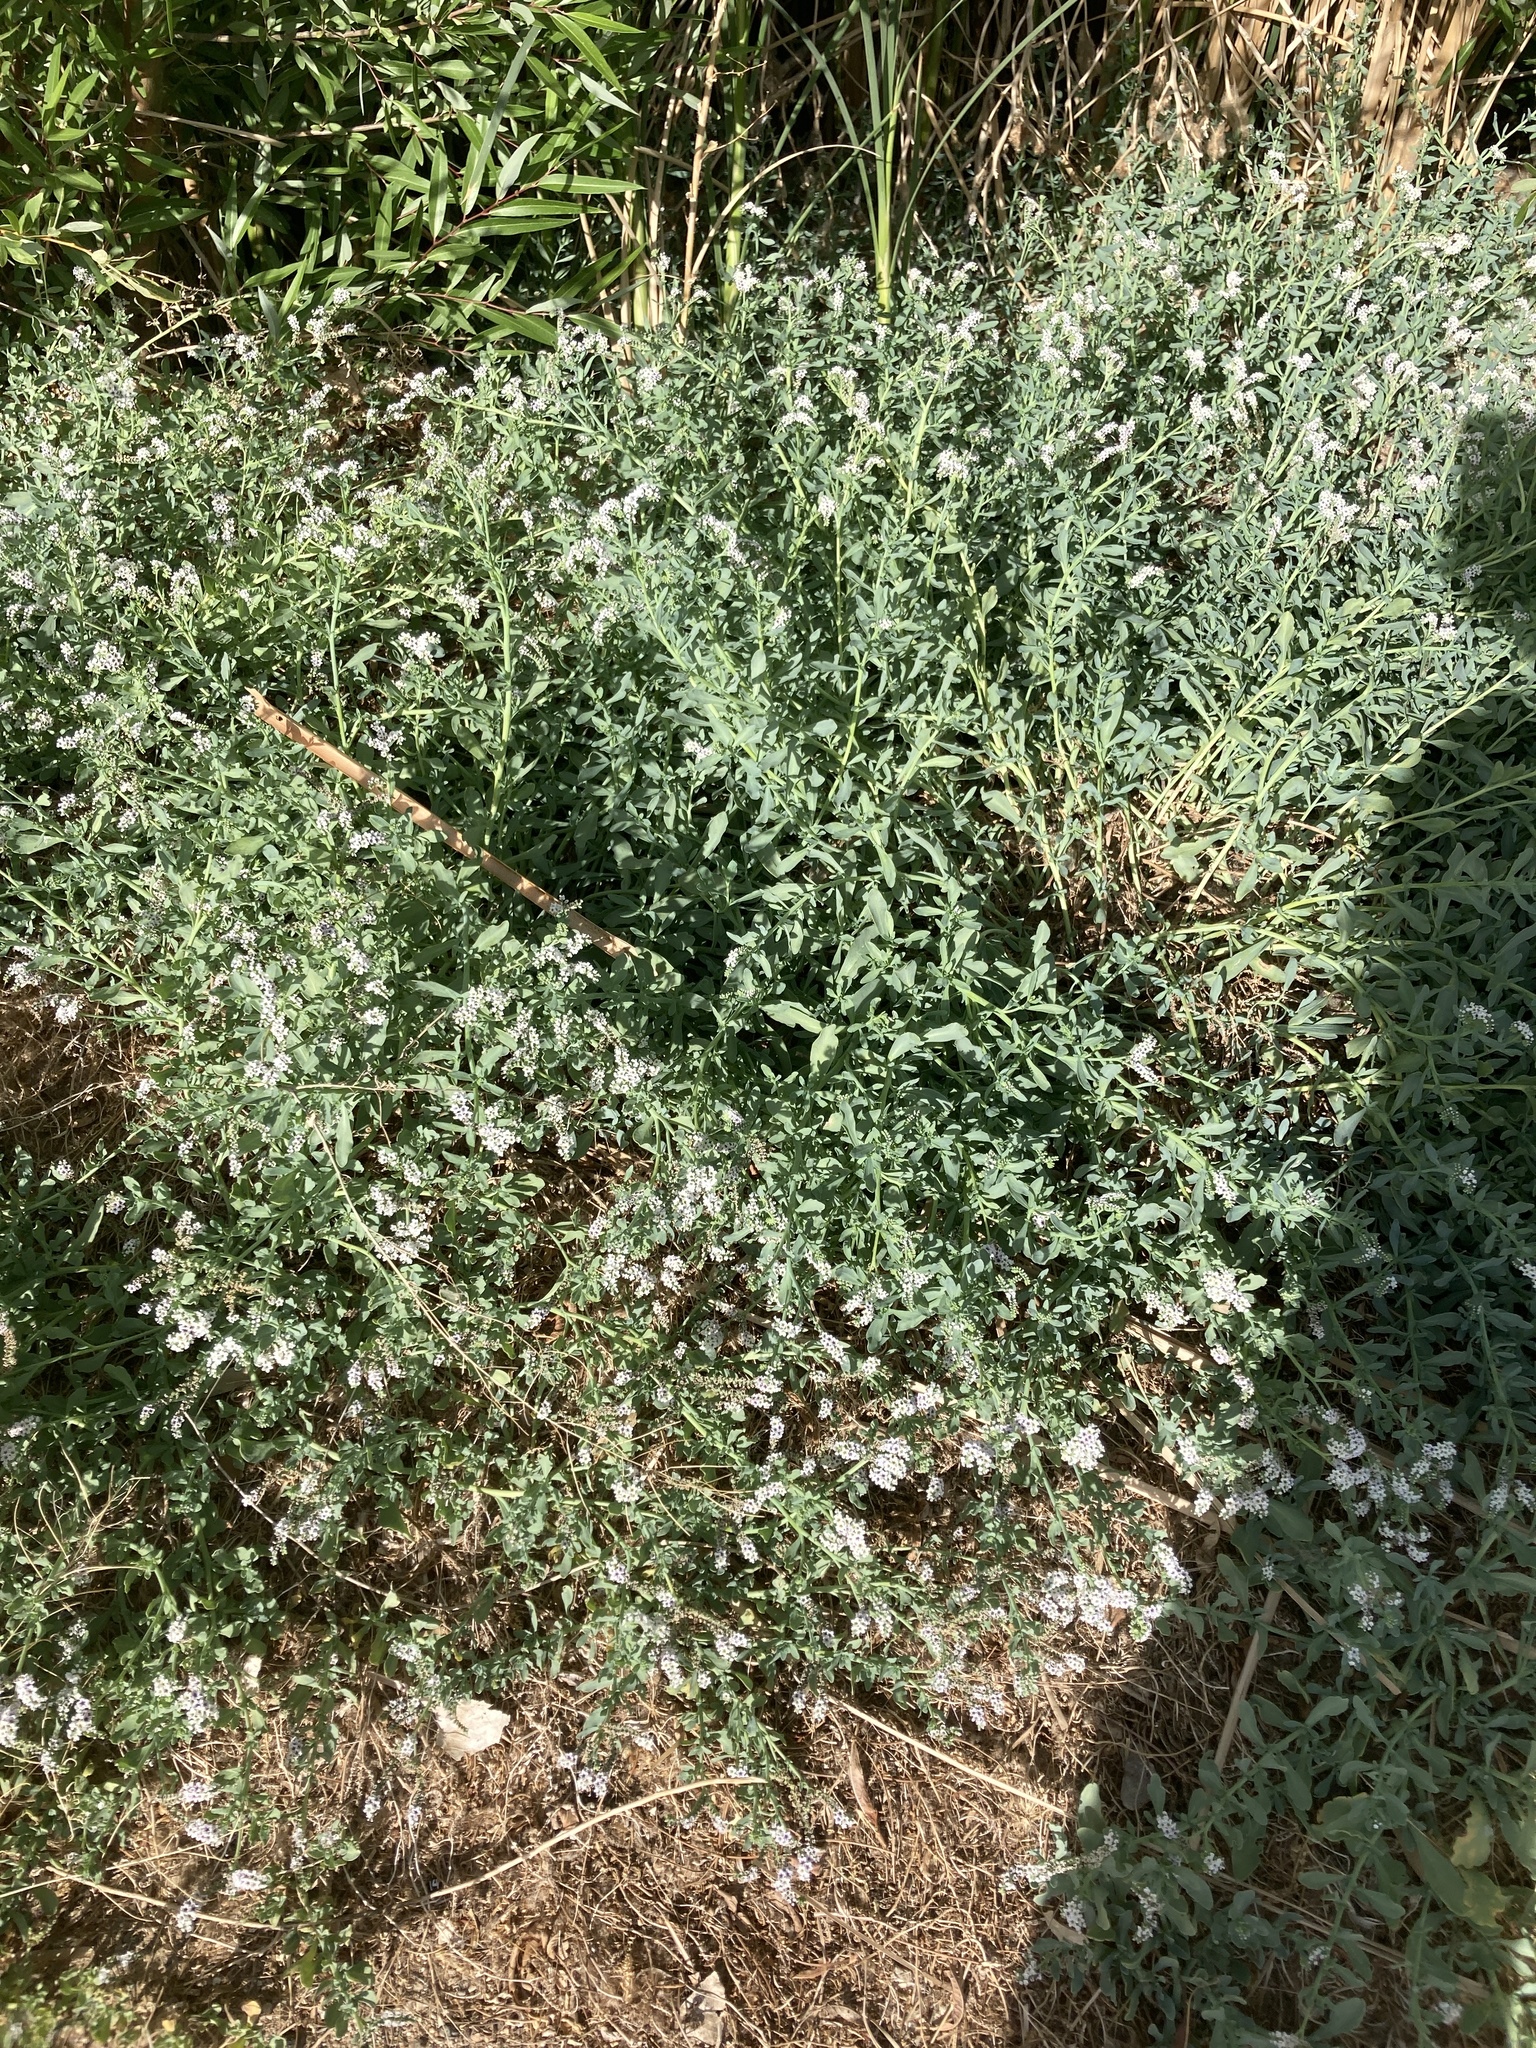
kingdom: Plantae
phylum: Tracheophyta
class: Magnoliopsida
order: Boraginales
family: Heliotropiaceae
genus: Heliotropium
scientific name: Heliotropium curassavicum
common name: Seaside heliotrope
